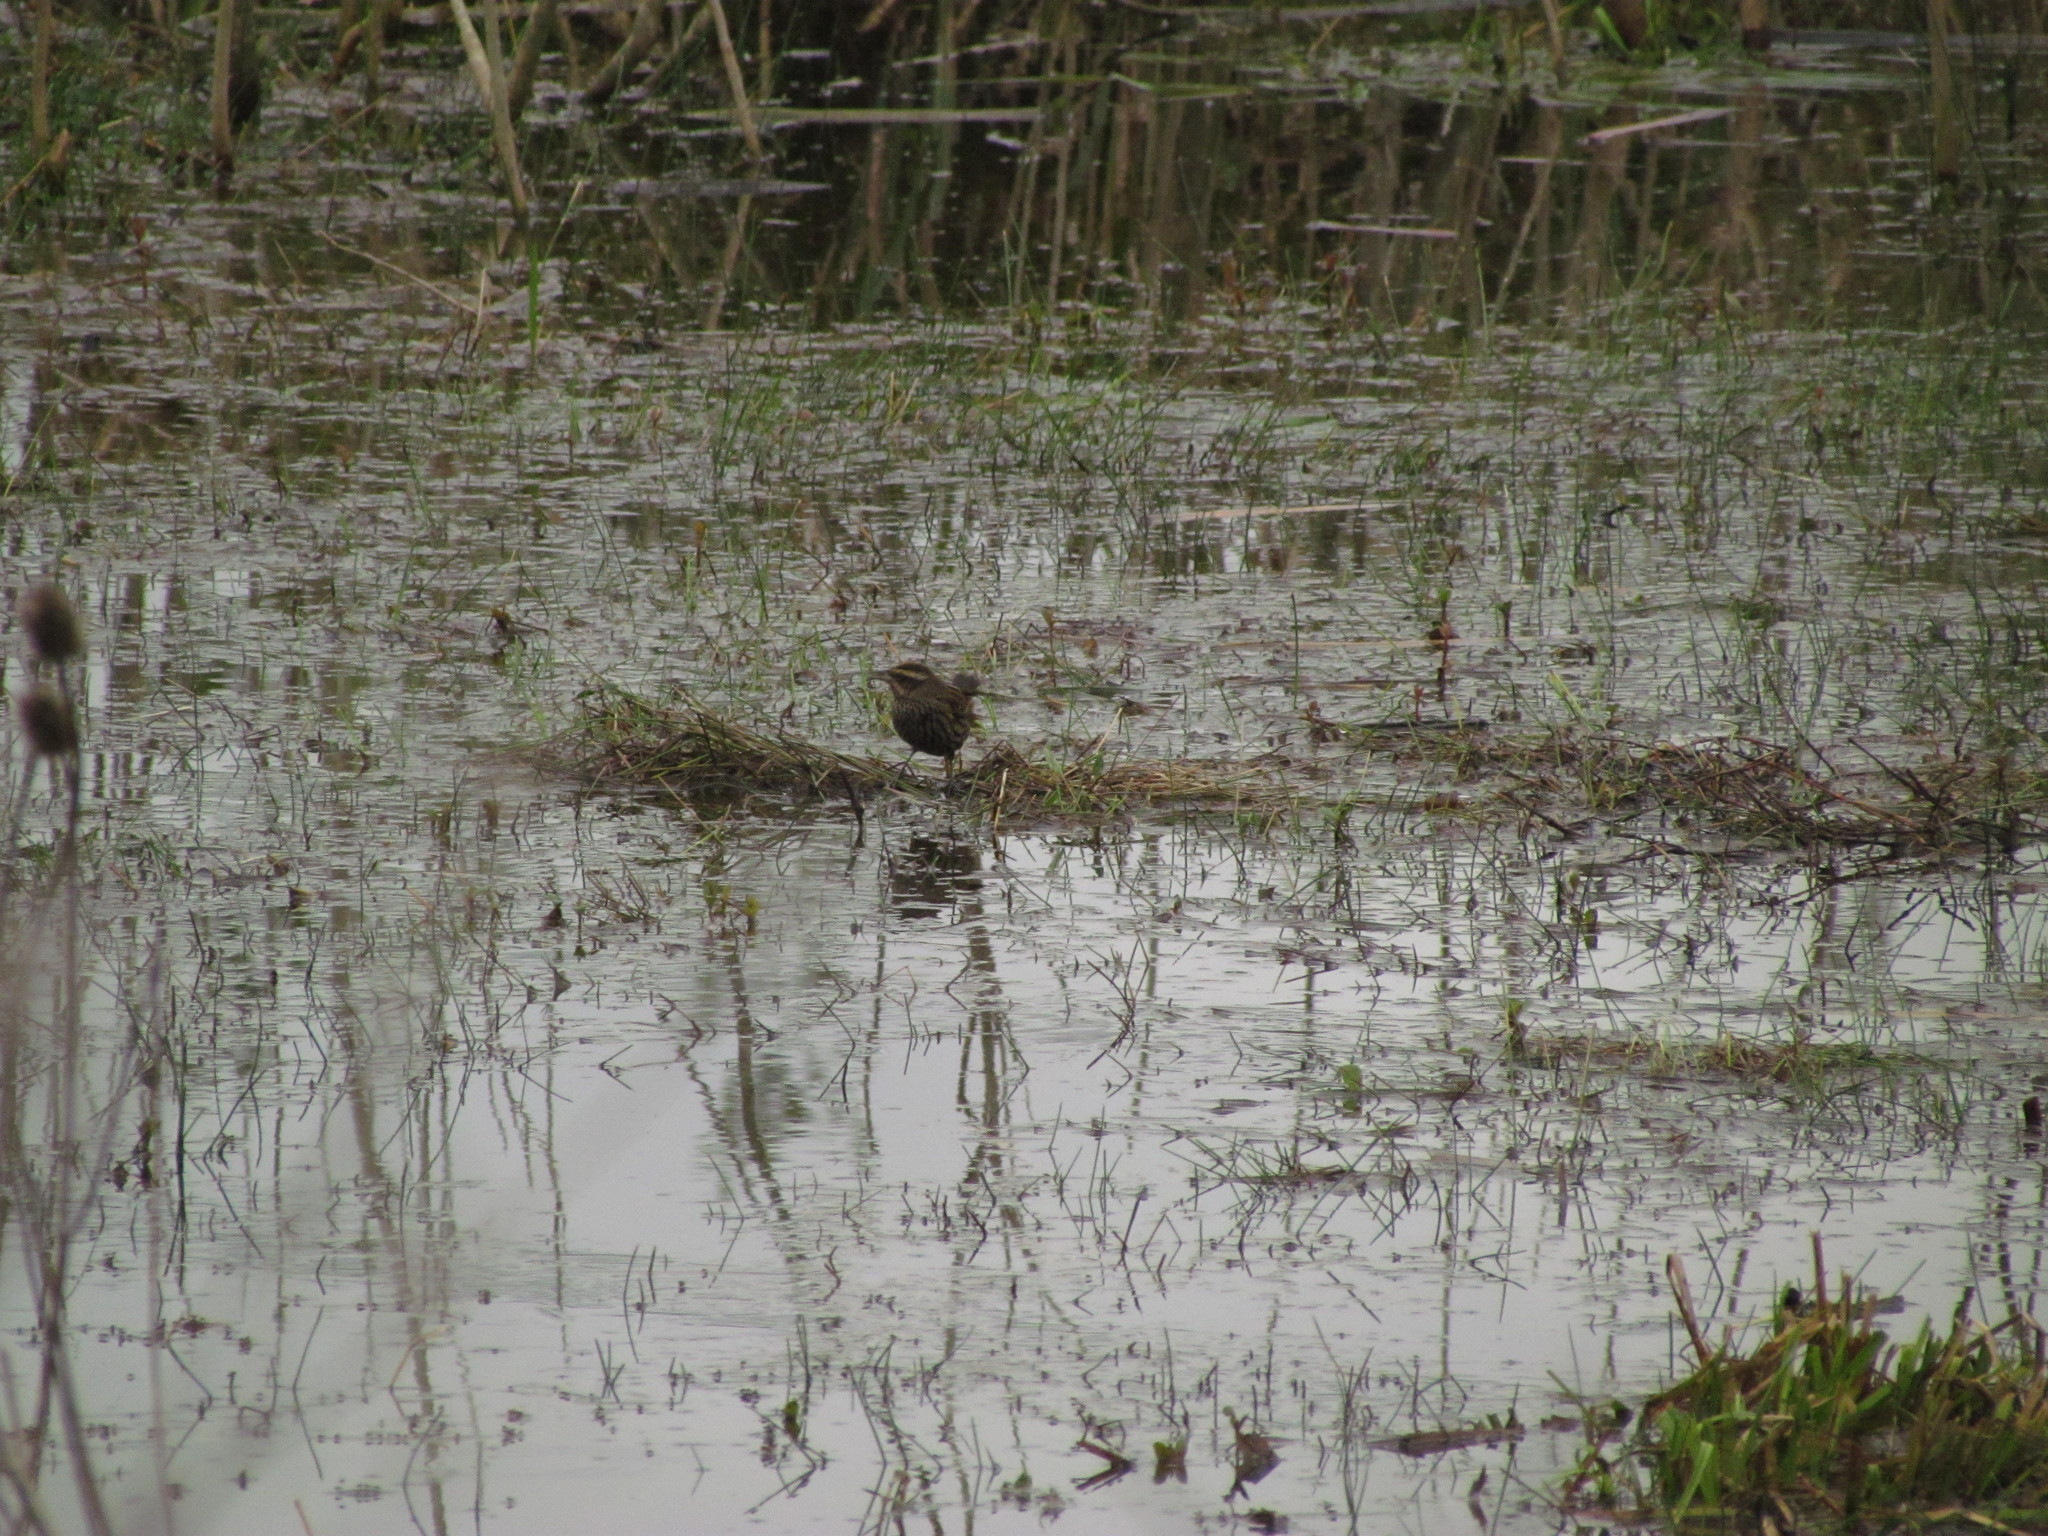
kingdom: Animalia
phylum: Chordata
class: Aves
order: Passeriformes
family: Icteridae
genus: Agelasticus
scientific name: Agelasticus thilius
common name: Yellow-winged blackbird
